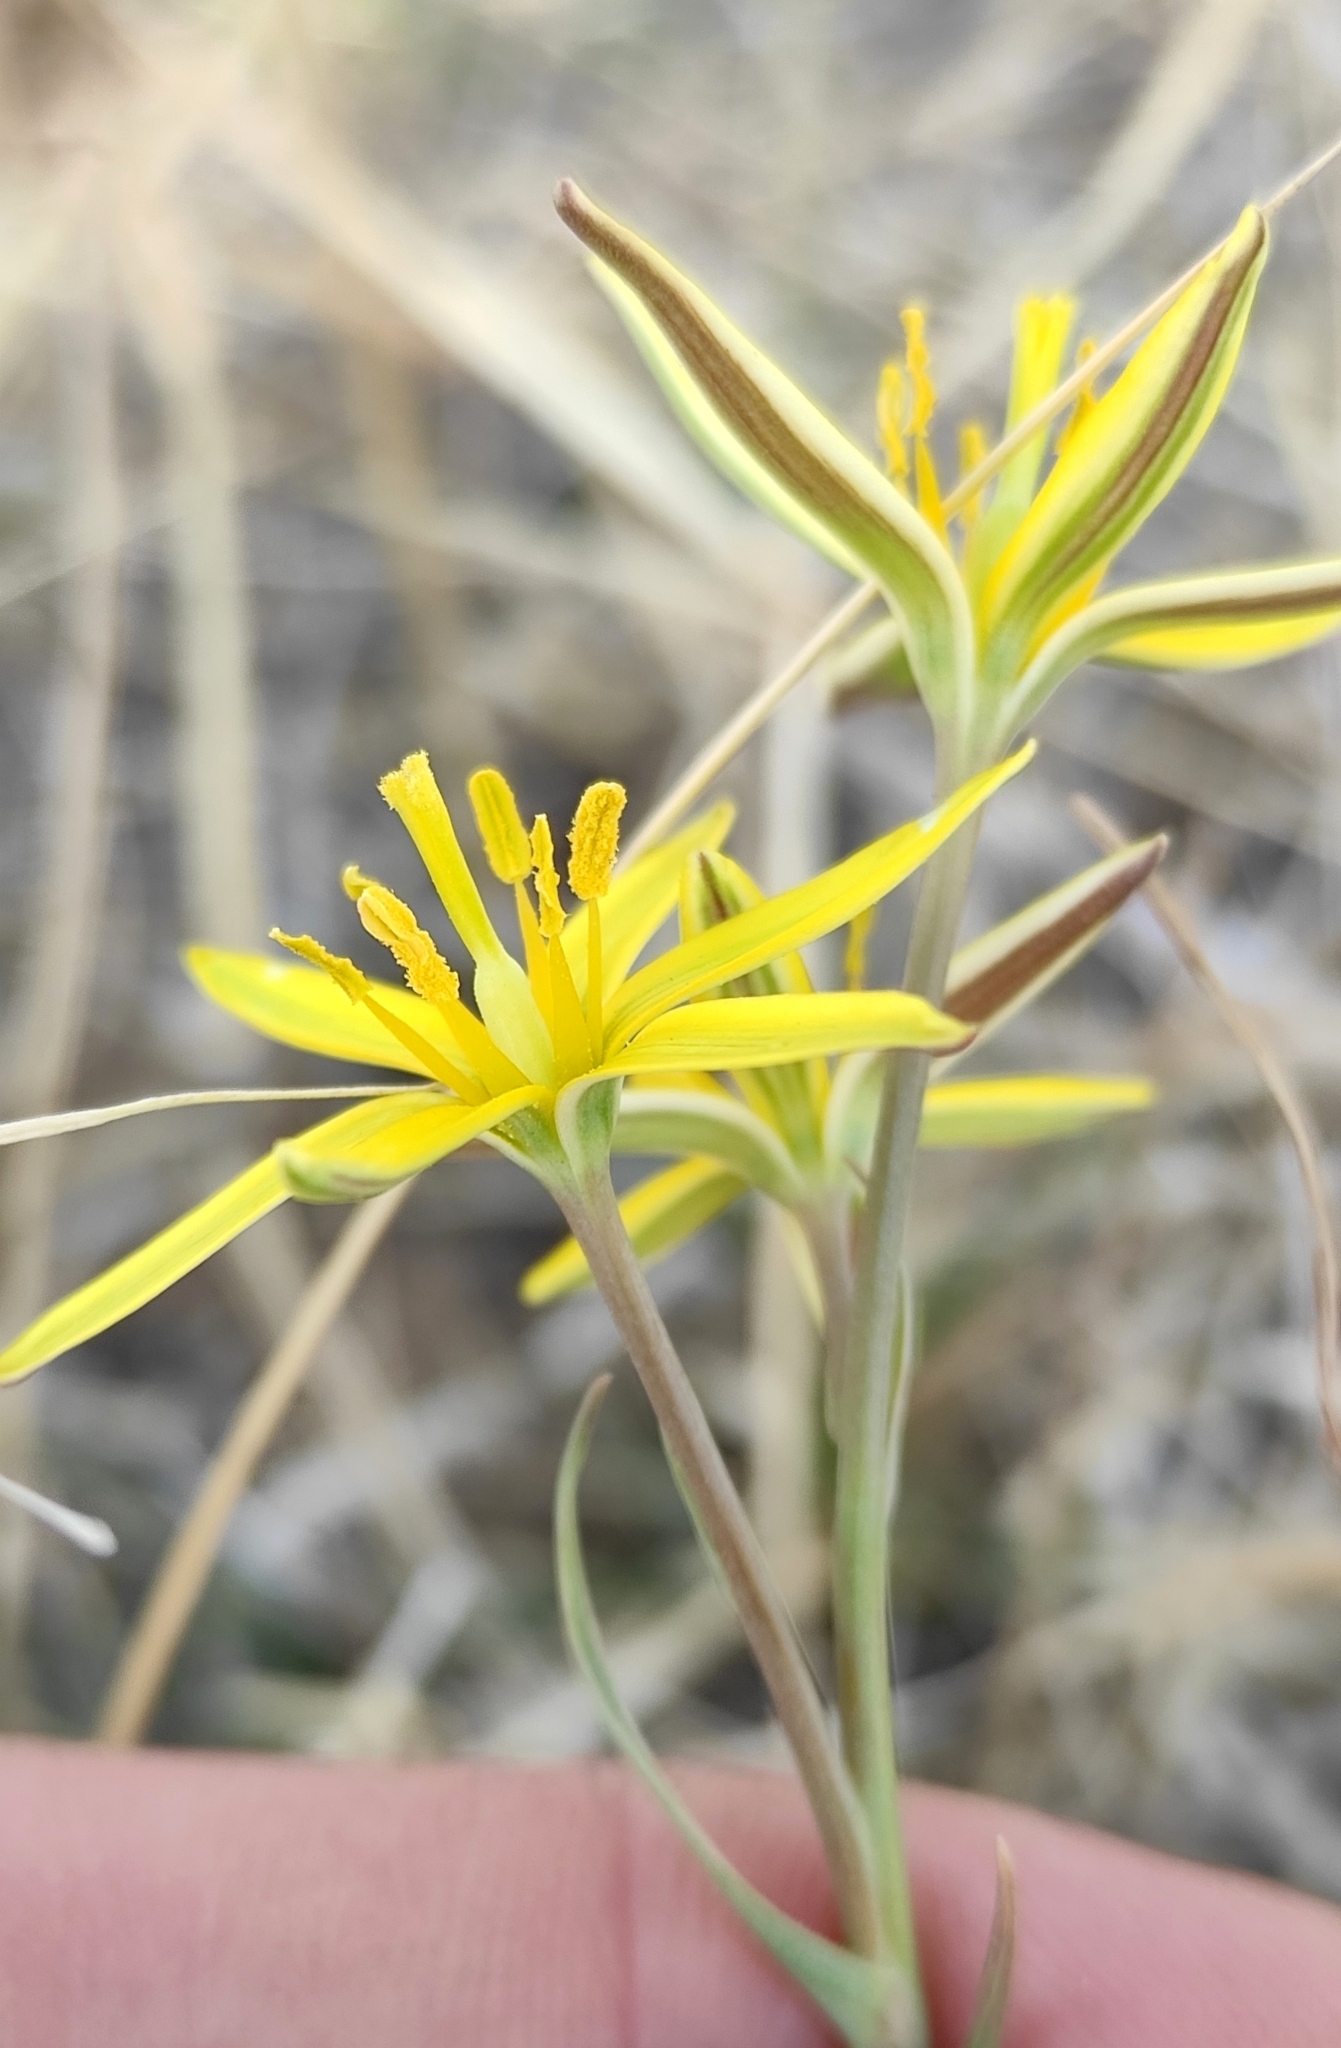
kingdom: Plantae
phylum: Tracheophyta
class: Liliopsida
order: Liliales
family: Liliaceae
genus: Gagea
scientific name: Gagea pauciflora
